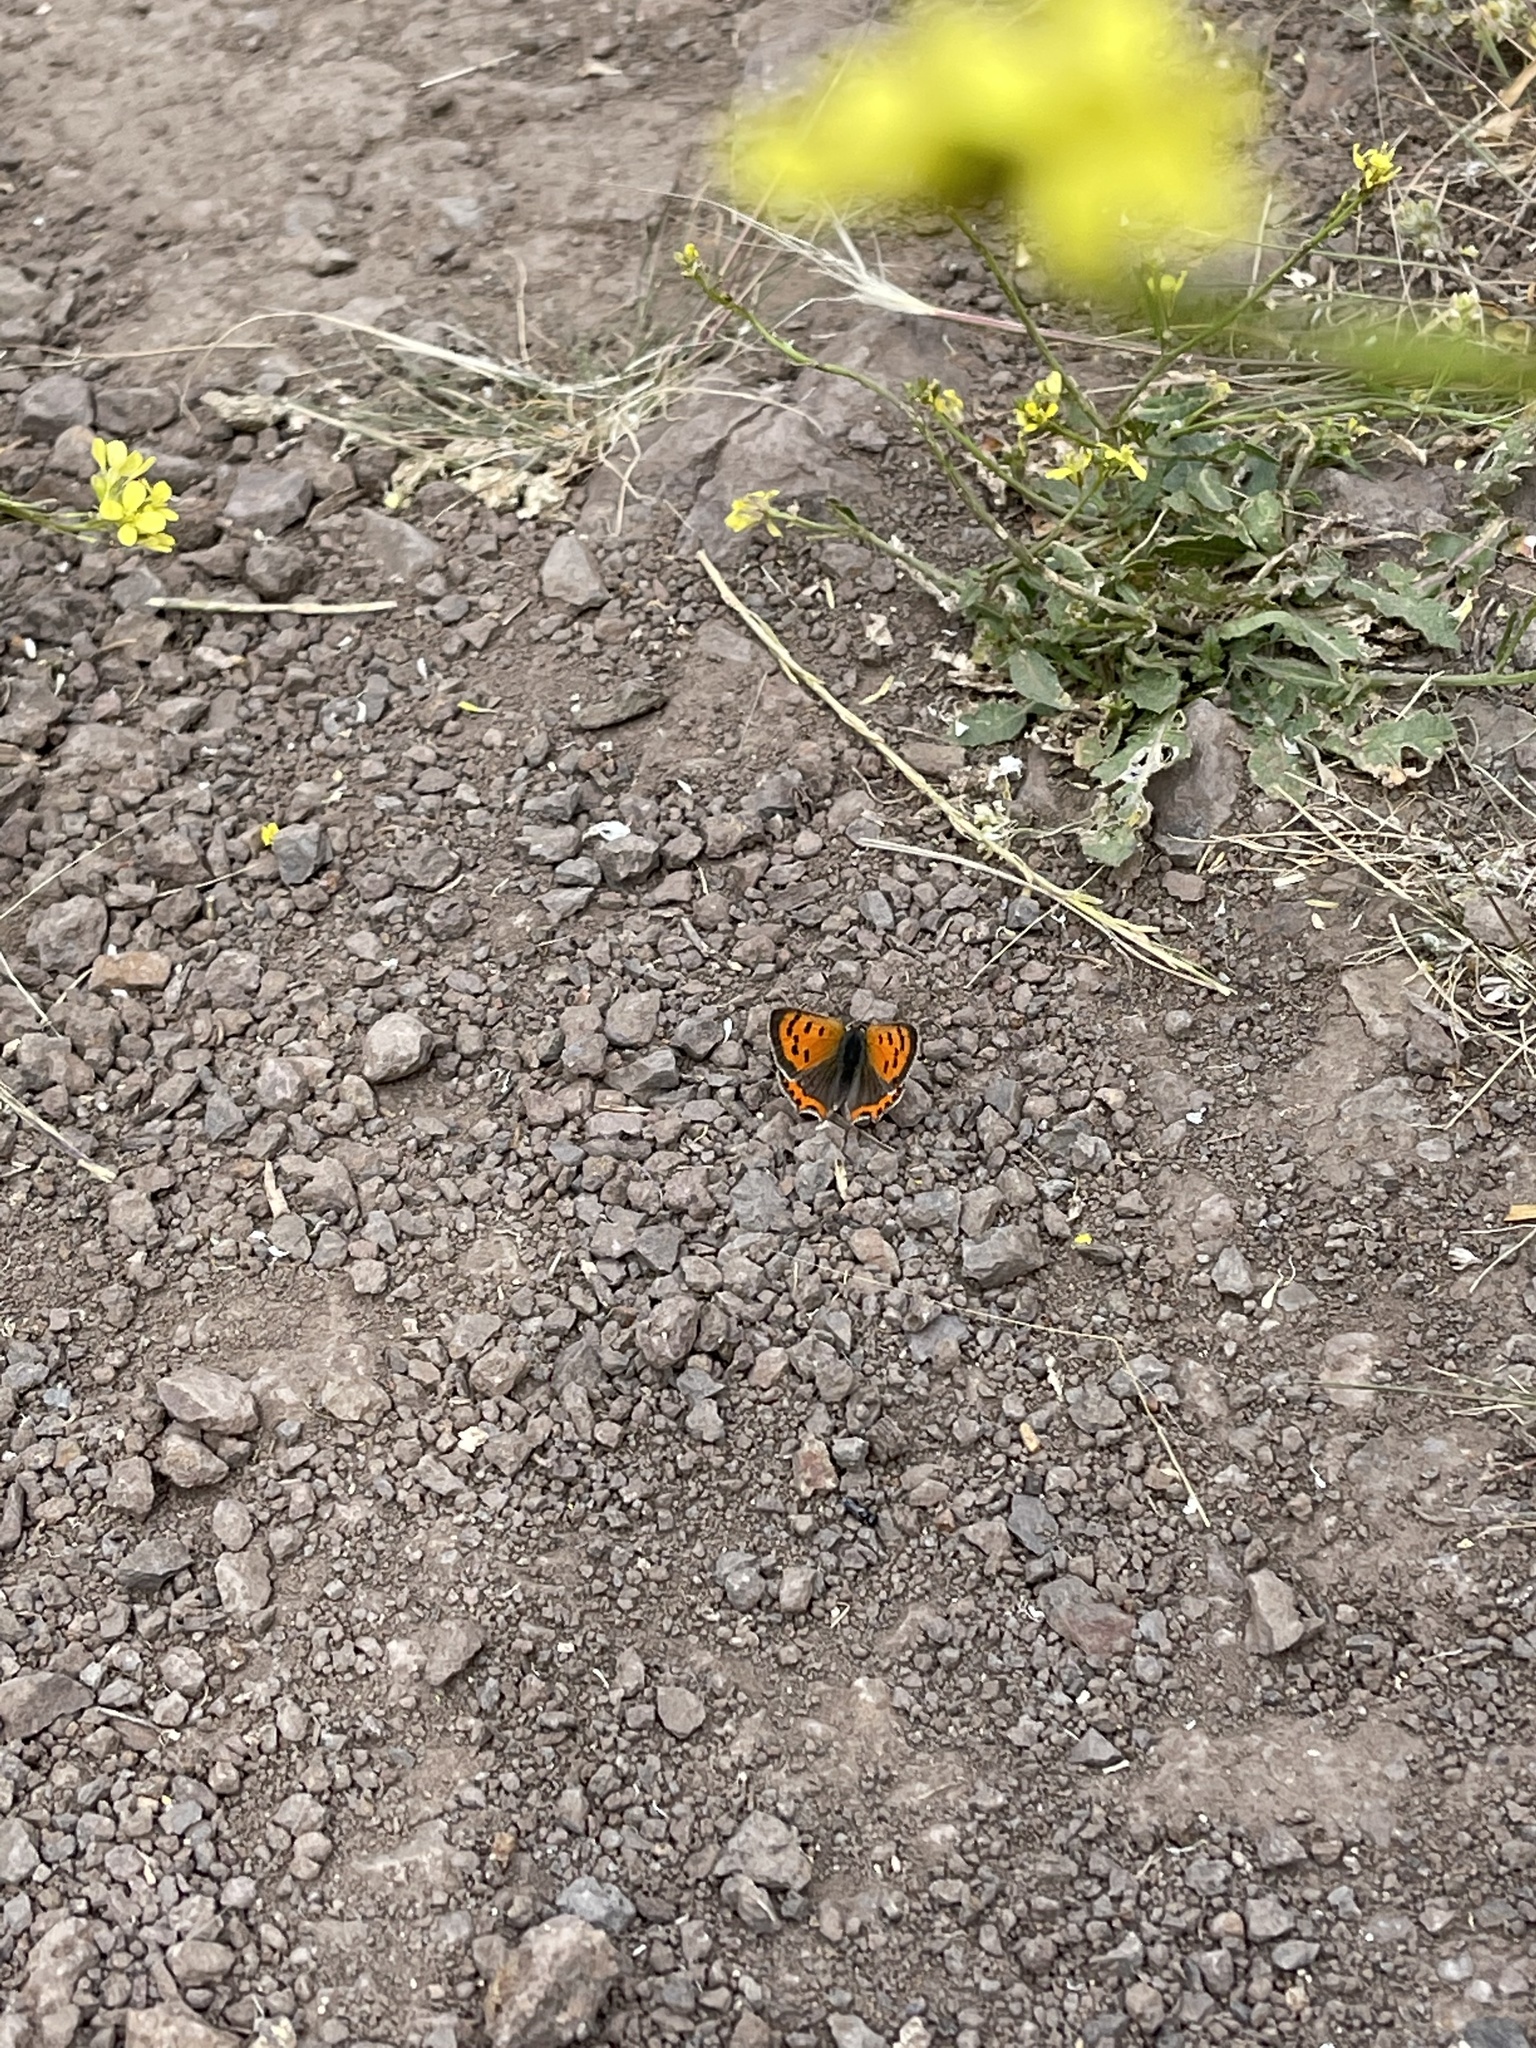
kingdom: Animalia
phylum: Arthropoda
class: Insecta
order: Lepidoptera
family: Lycaenidae
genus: Lycaena
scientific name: Lycaena phlaeas
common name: Small copper
